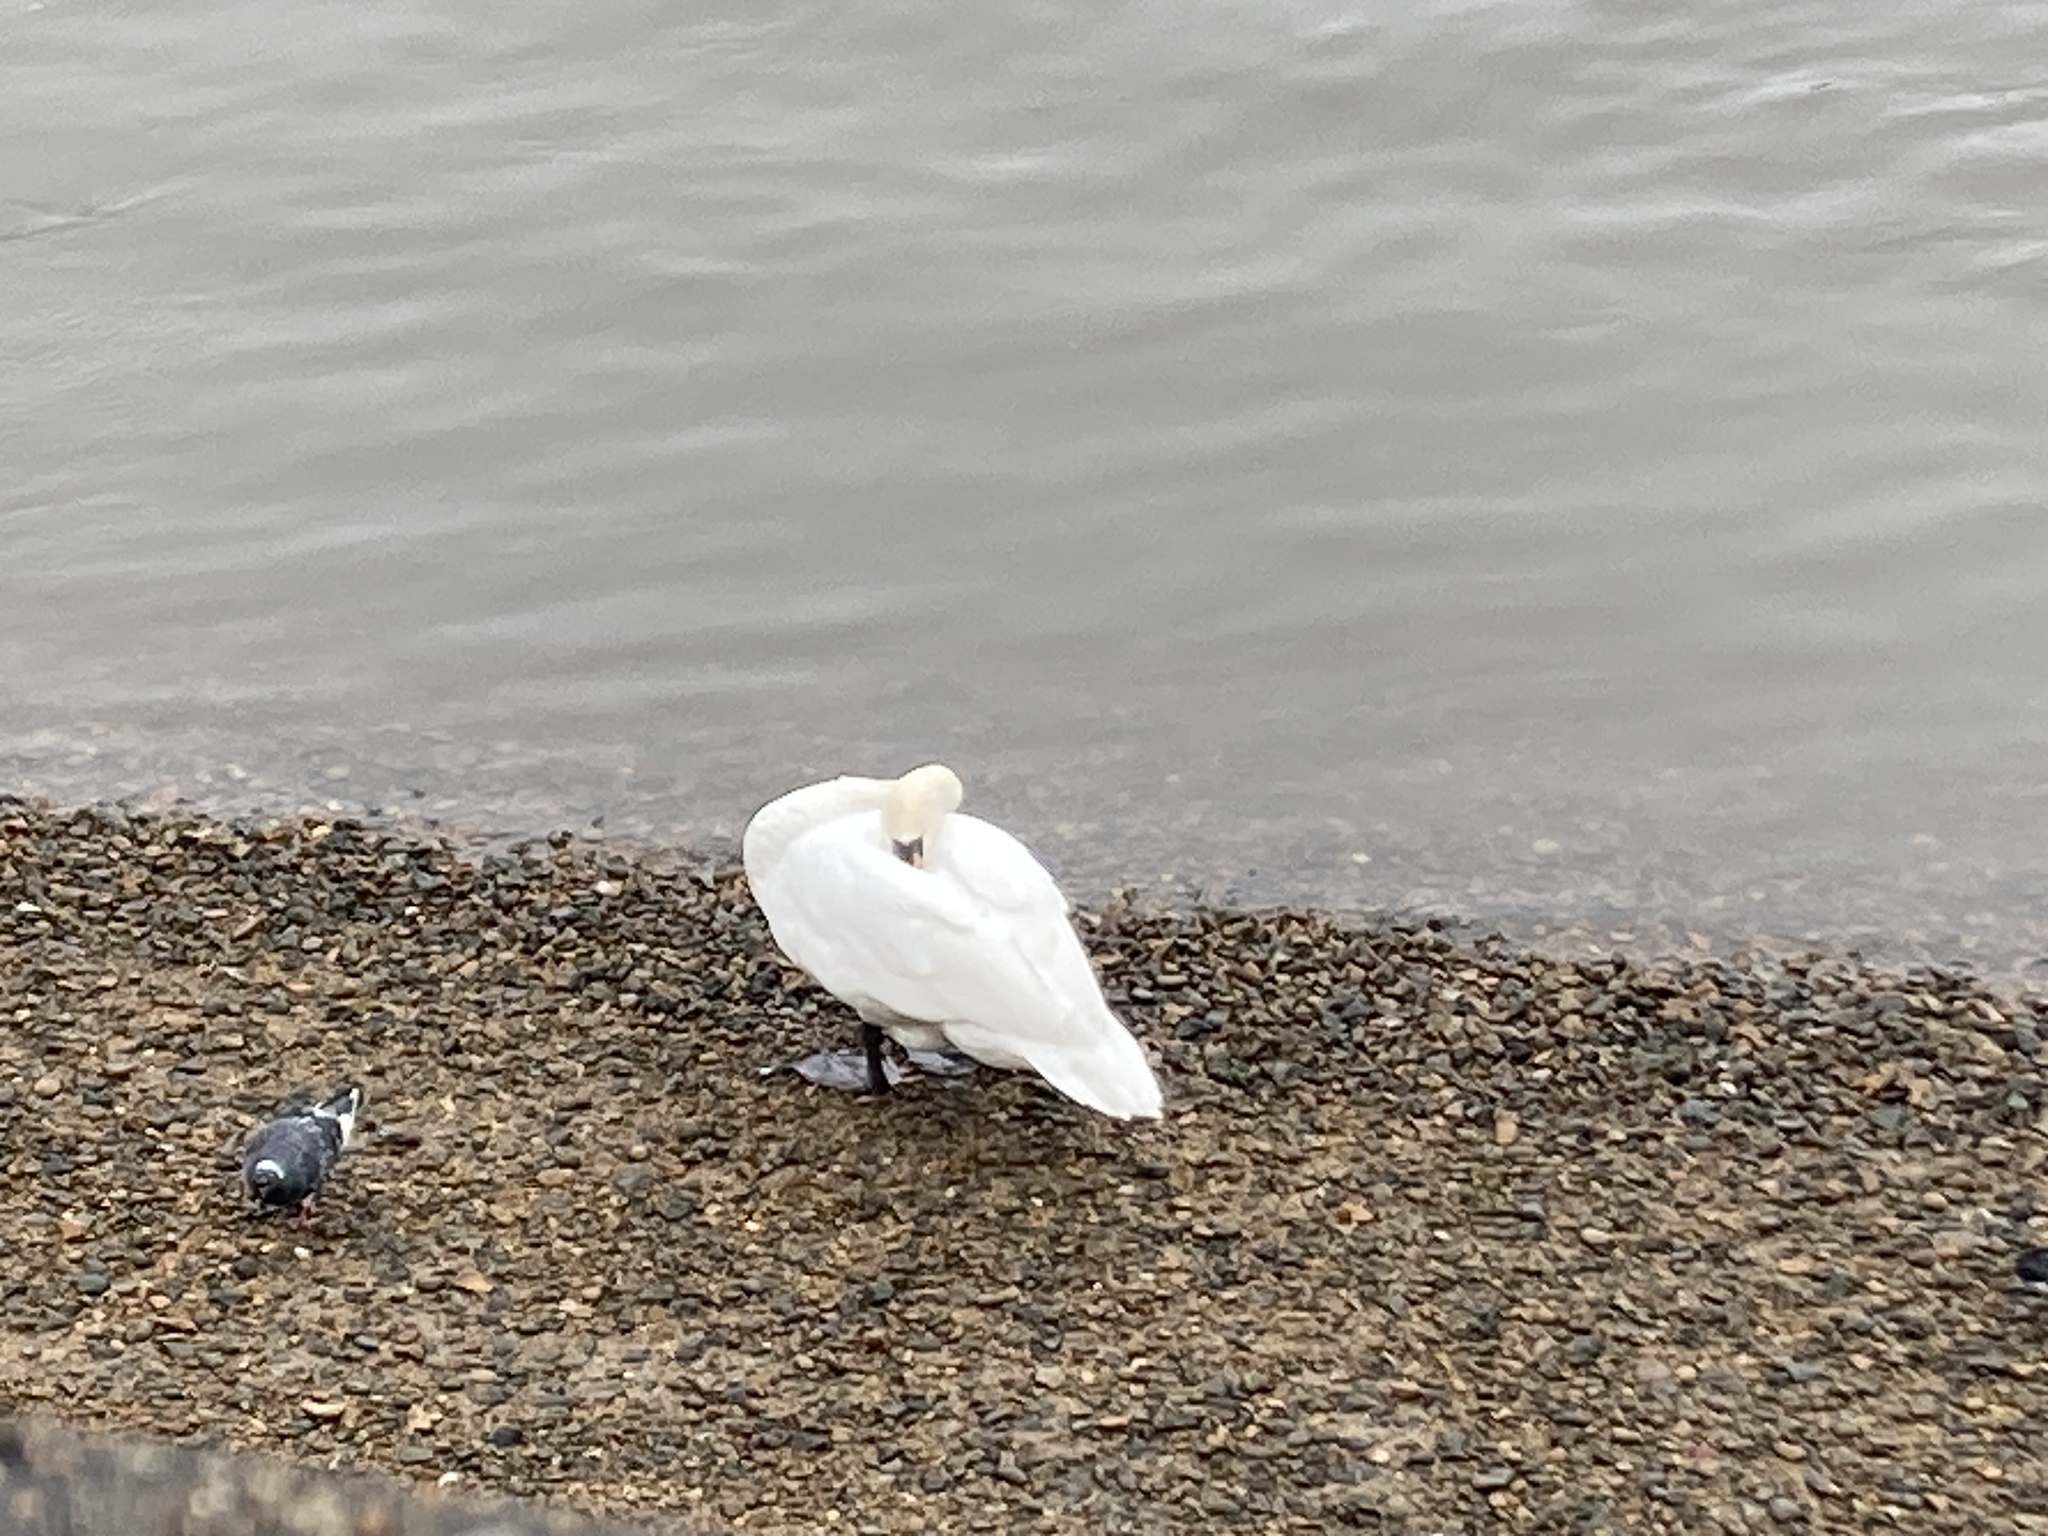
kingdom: Animalia
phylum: Chordata
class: Aves
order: Anseriformes
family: Anatidae
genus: Cygnus
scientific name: Cygnus olor
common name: Mute swan
